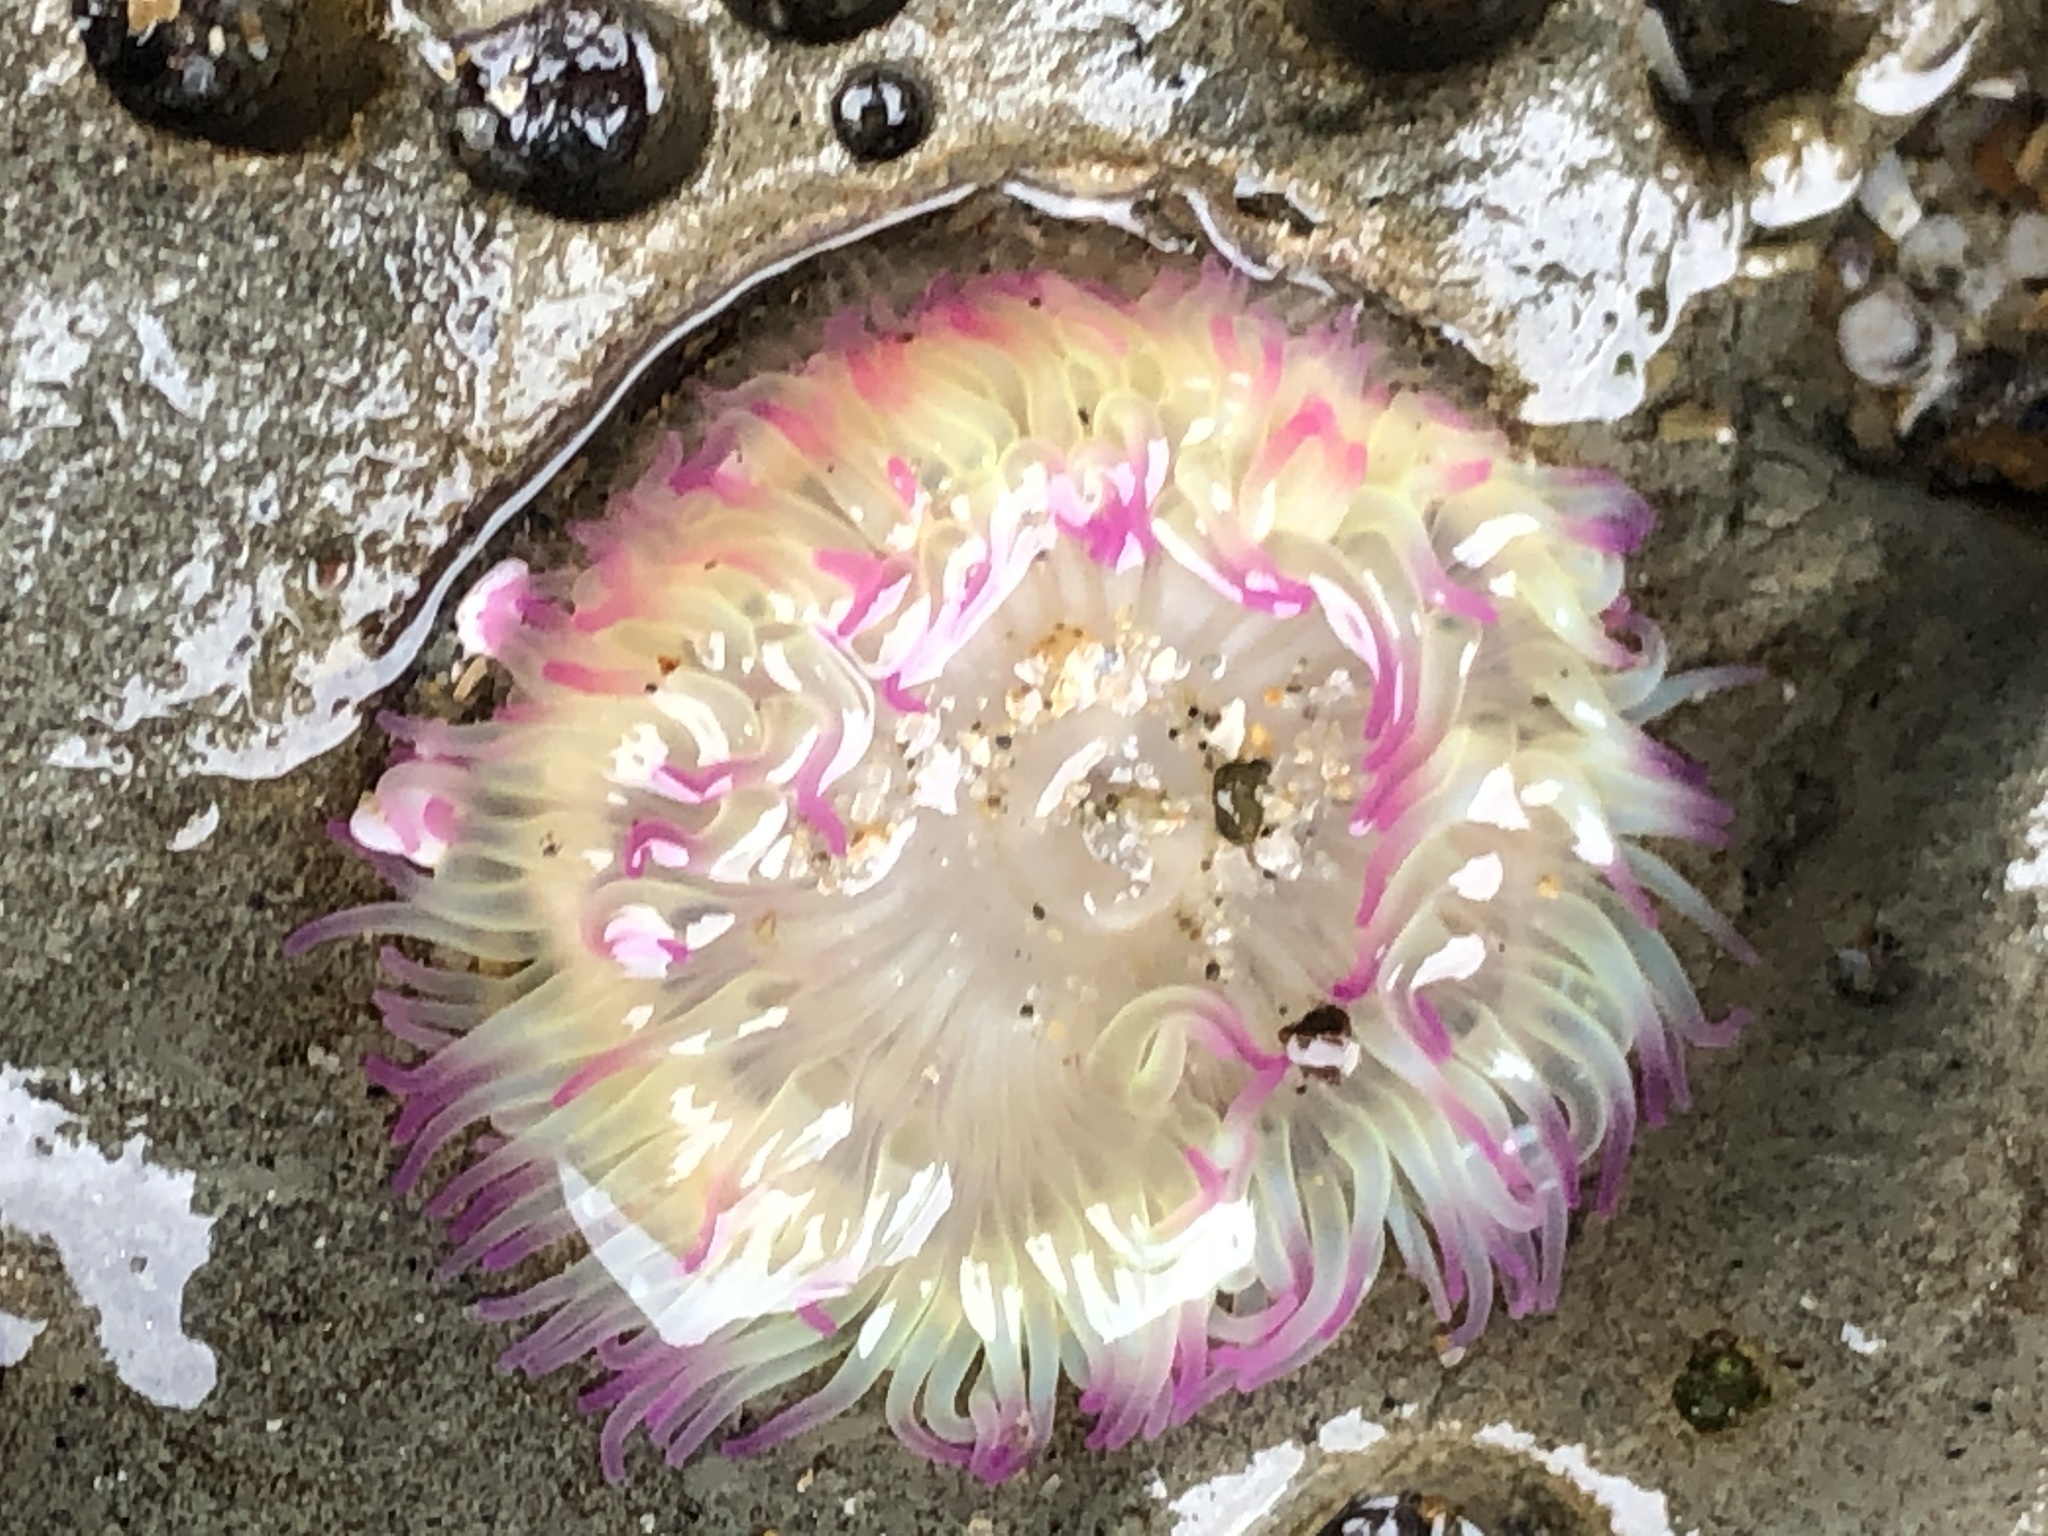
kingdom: Animalia
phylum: Cnidaria
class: Anthozoa
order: Actiniaria
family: Actiniidae
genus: Anthopleura
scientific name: Anthopleura elegantissima
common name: Clonal anemone
